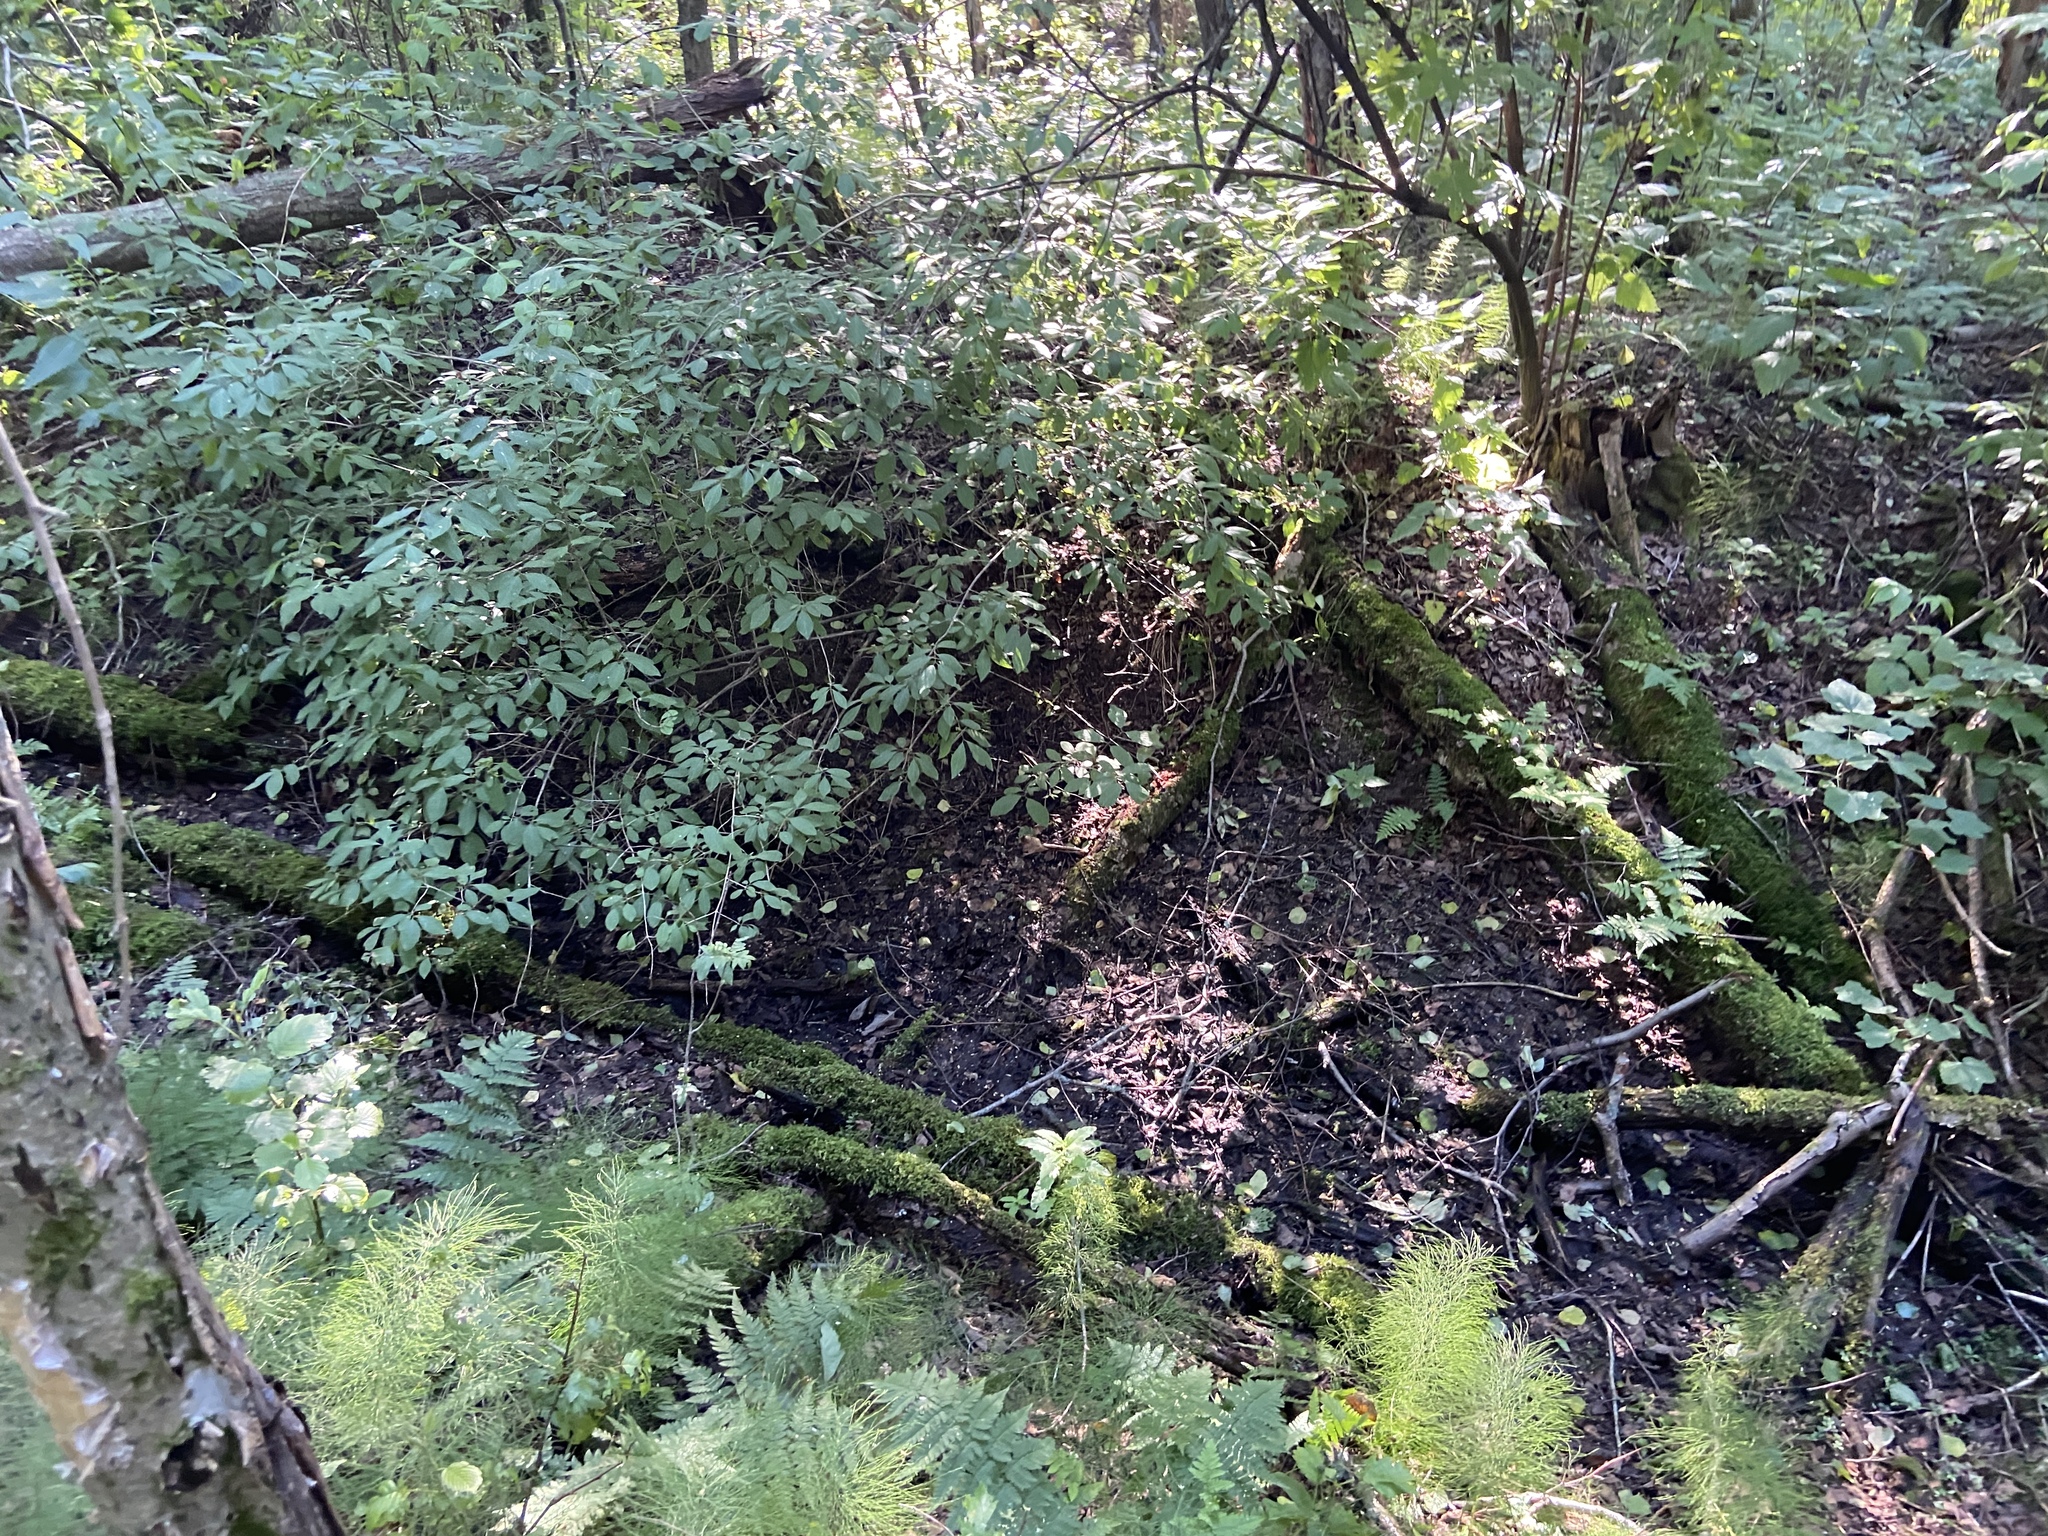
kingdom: Plantae
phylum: Tracheophyta
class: Magnoliopsida
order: Dipsacales
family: Caprifoliaceae
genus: Lonicera
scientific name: Lonicera xylosteum
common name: Fly honeysuckle
